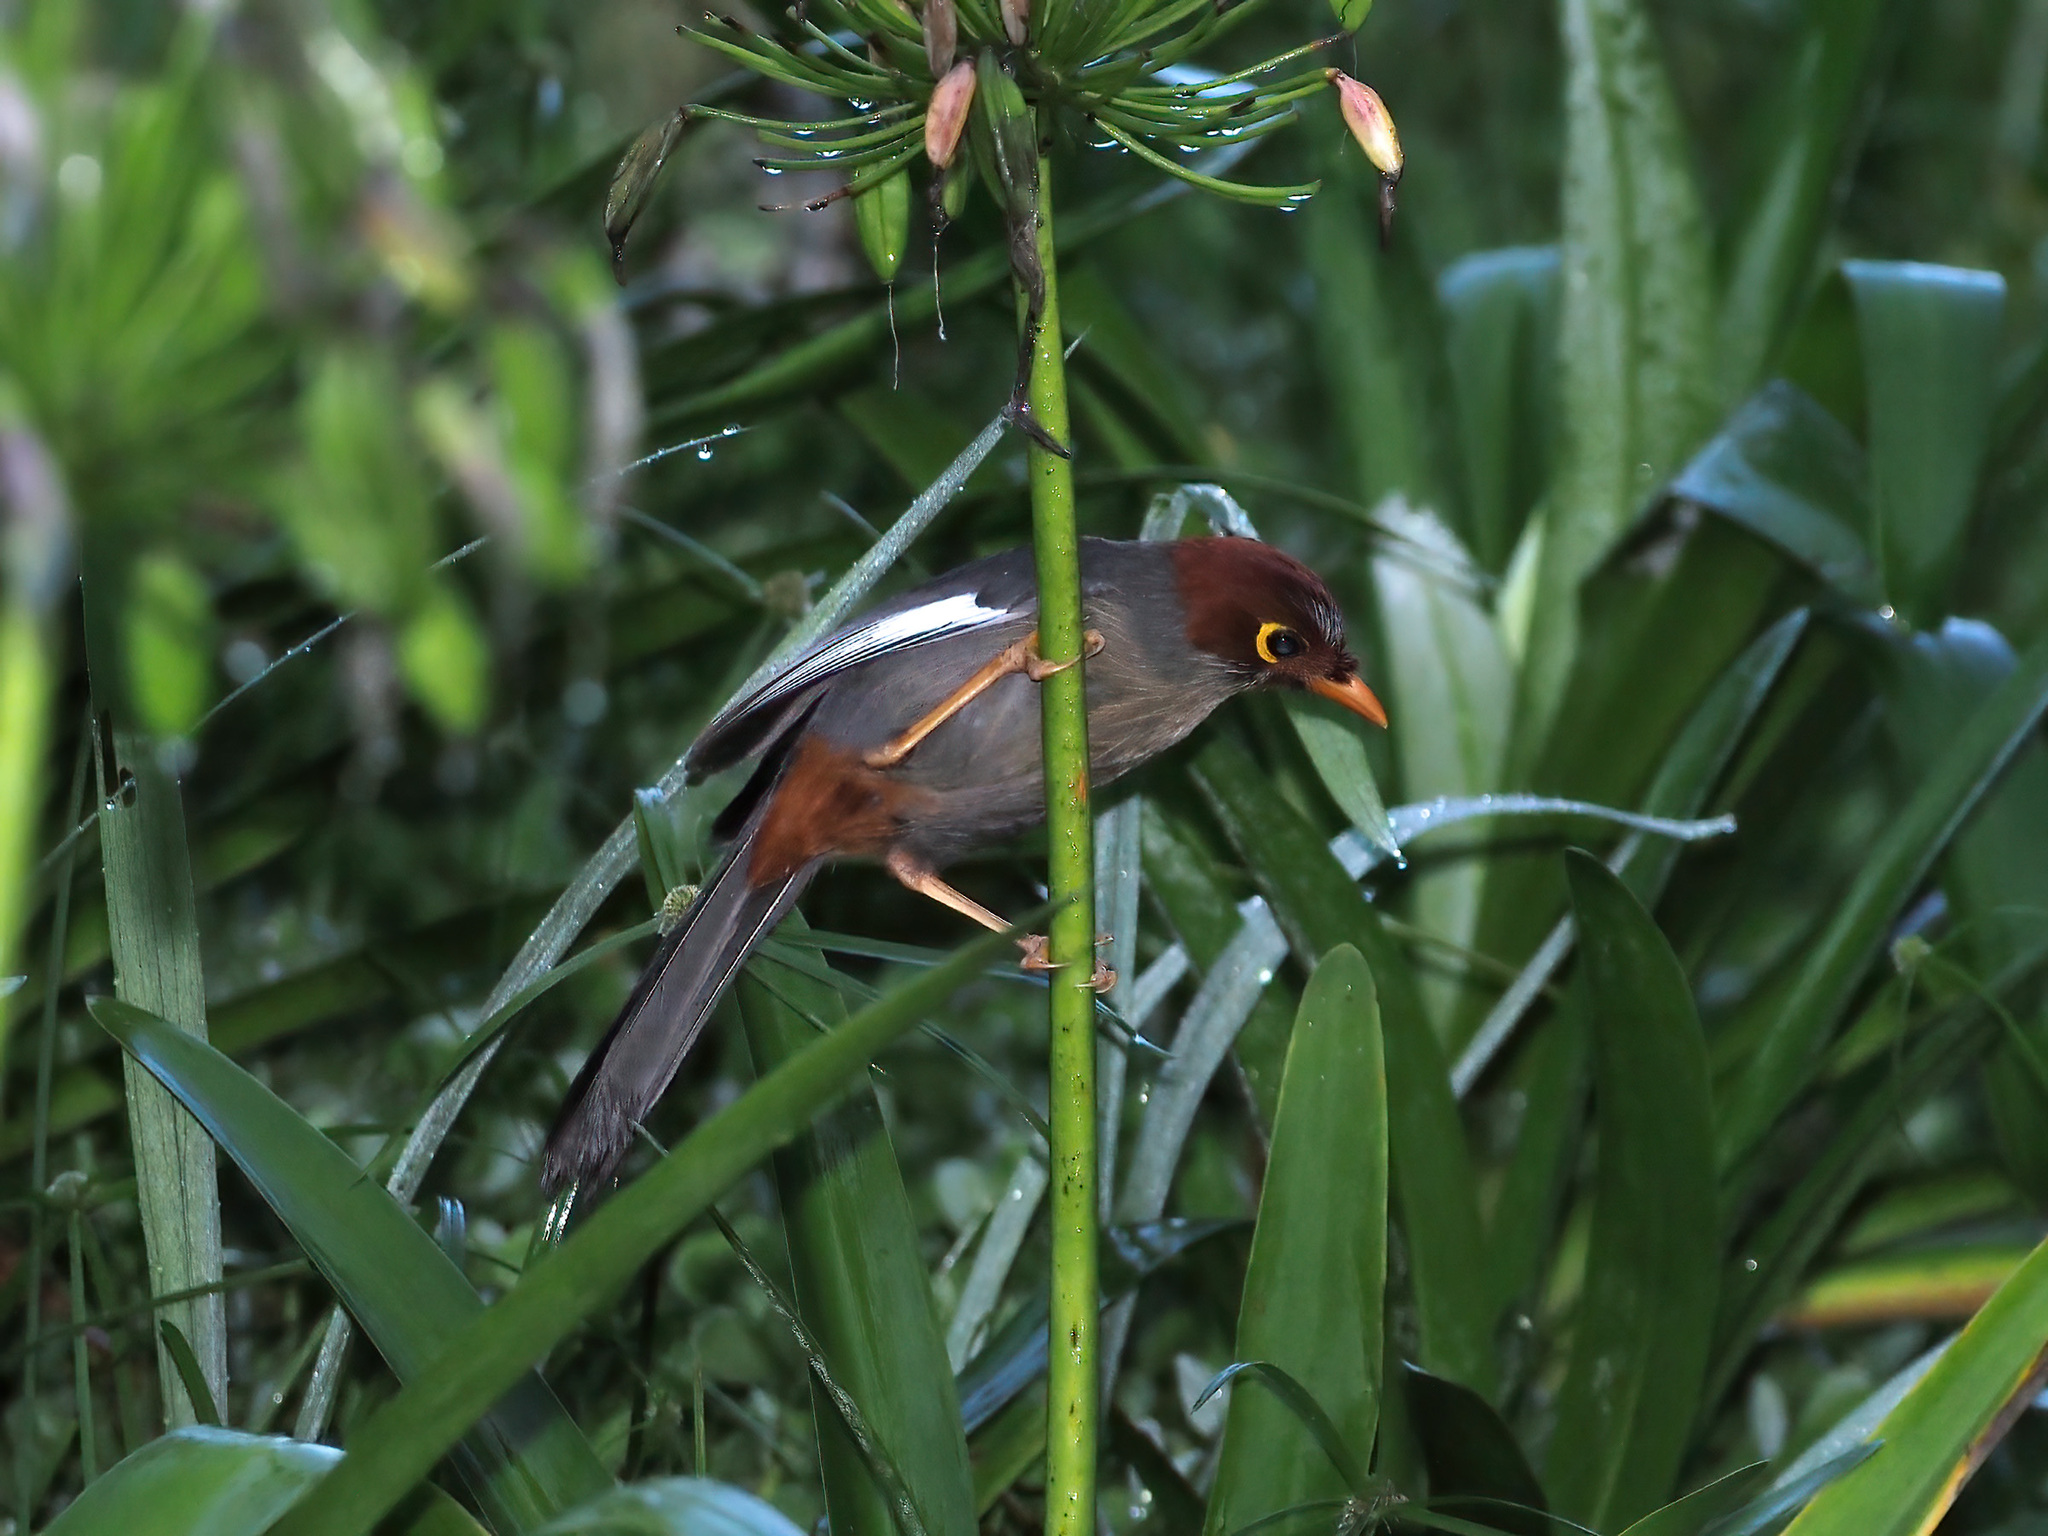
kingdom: Animalia
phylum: Chordata
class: Aves
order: Passeriformes
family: Leiothrichidae
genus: Garrulax
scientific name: Garrulax treacheri
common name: Chestnut-hooded laughingthrush
